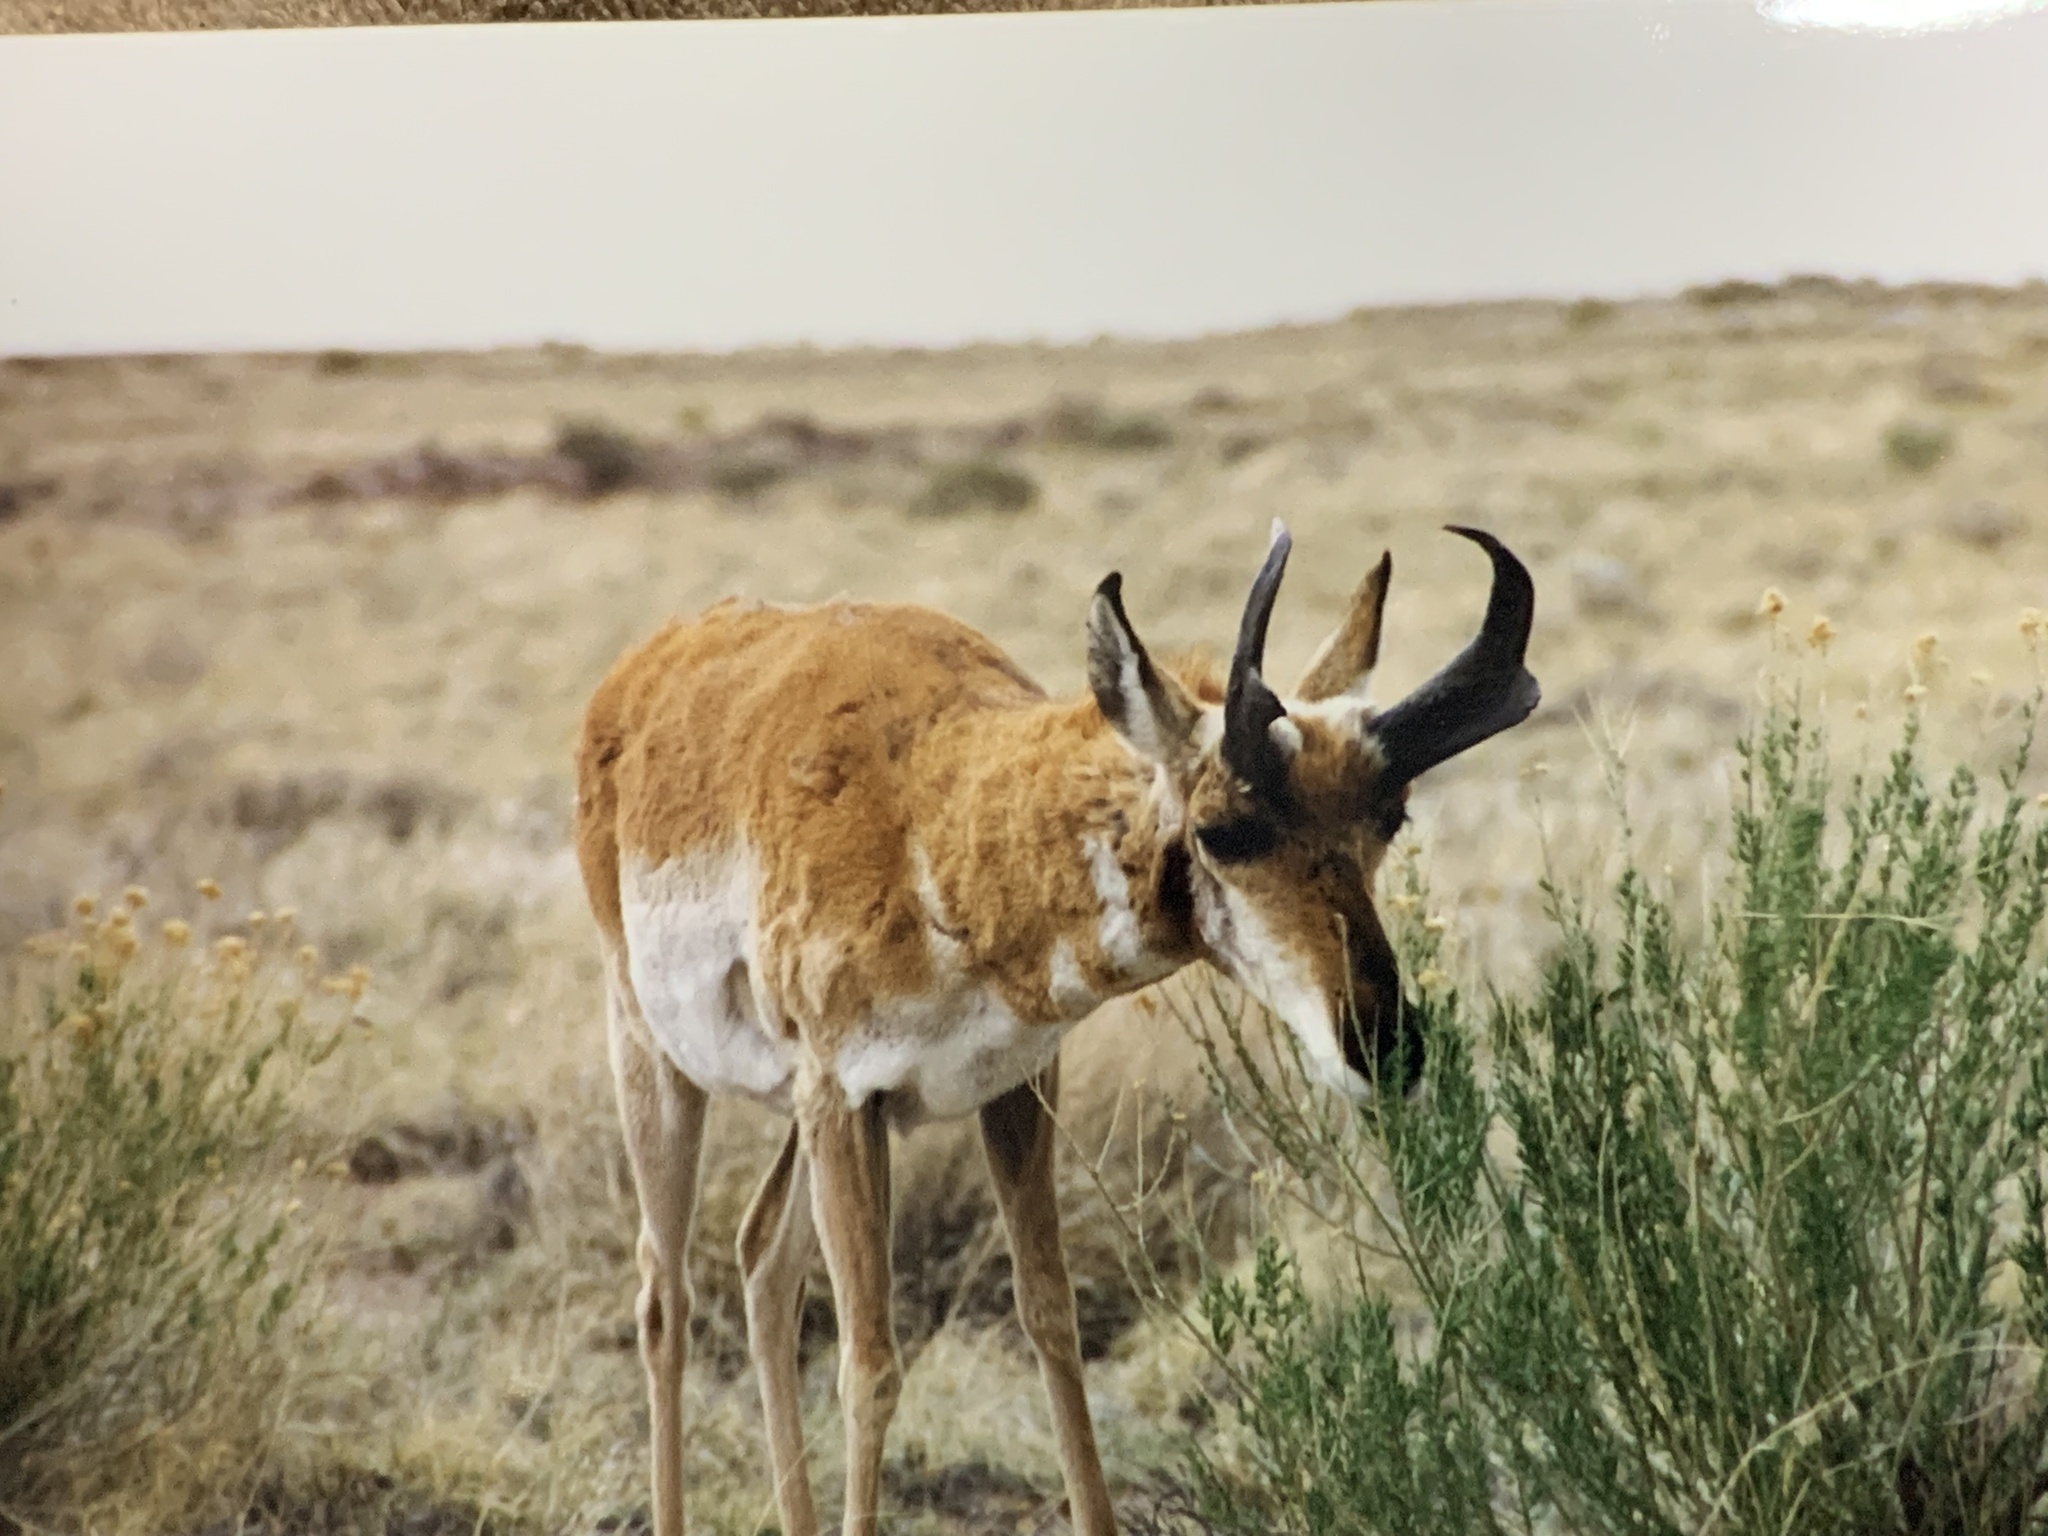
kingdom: Animalia
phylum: Chordata
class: Mammalia
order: Artiodactyla
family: Antilocapridae
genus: Antilocapra
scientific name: Antilocapra americana
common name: Pronghorn
